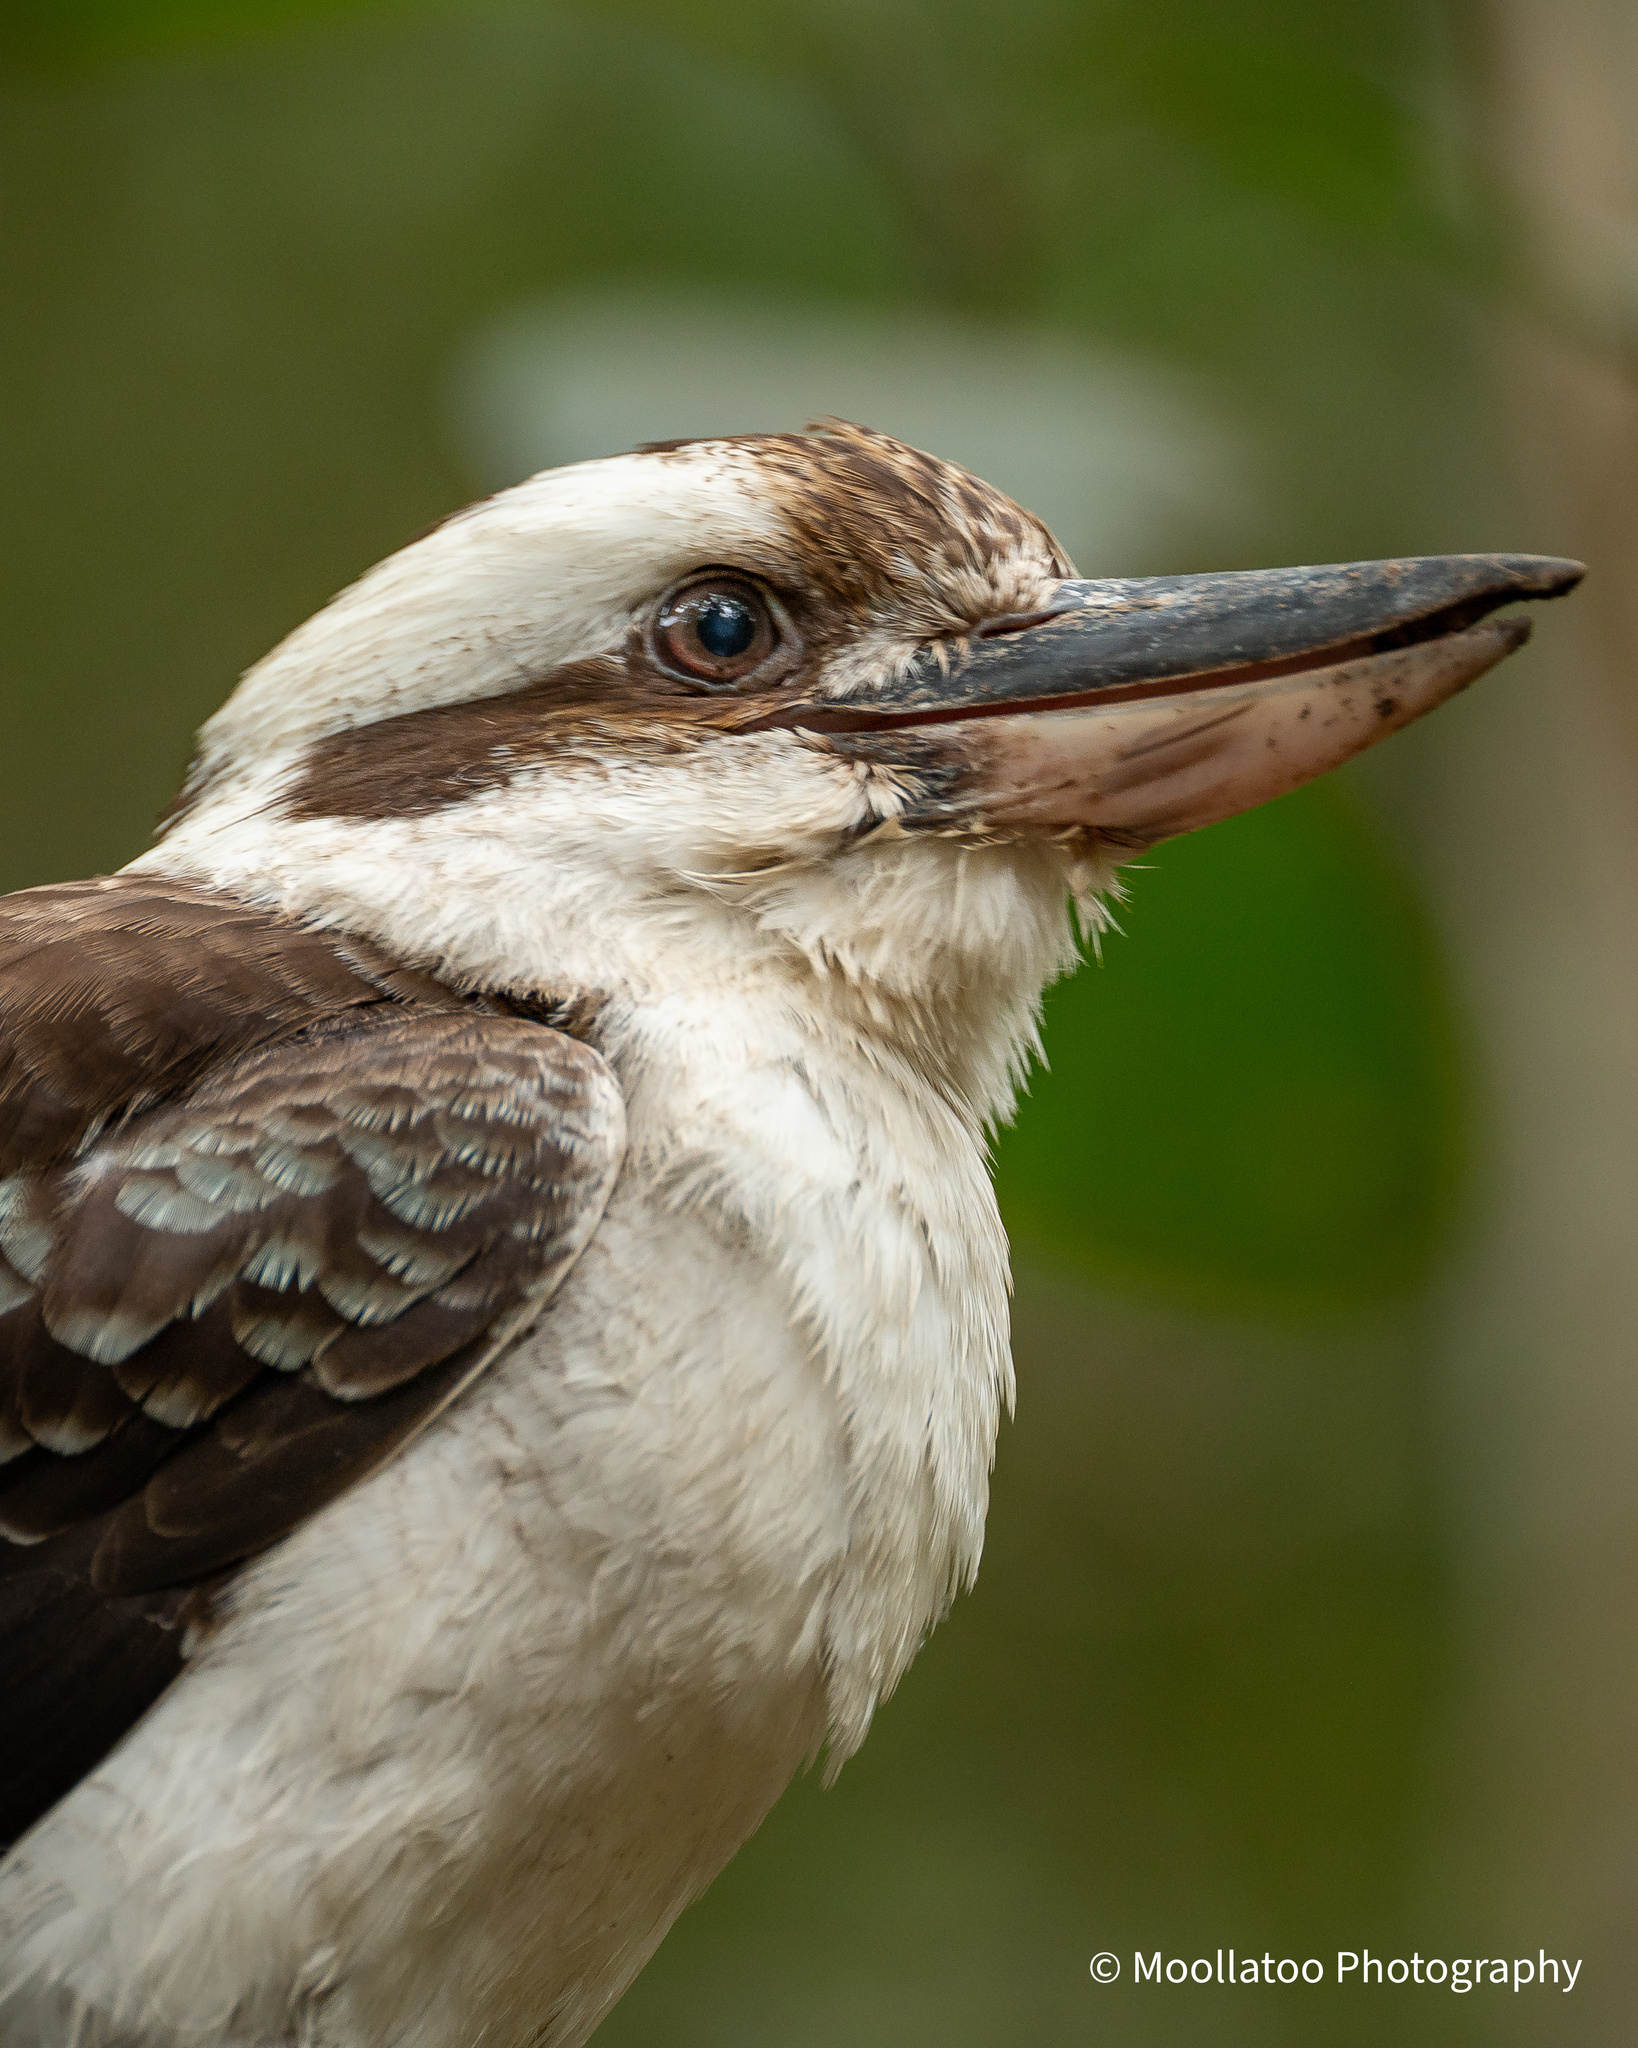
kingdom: Animalia
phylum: Chordata
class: Aves
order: Coraciiformes
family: Alcedinidae
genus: Dacelo
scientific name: Dacelo novaeguineae
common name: Laughing kookaburra
